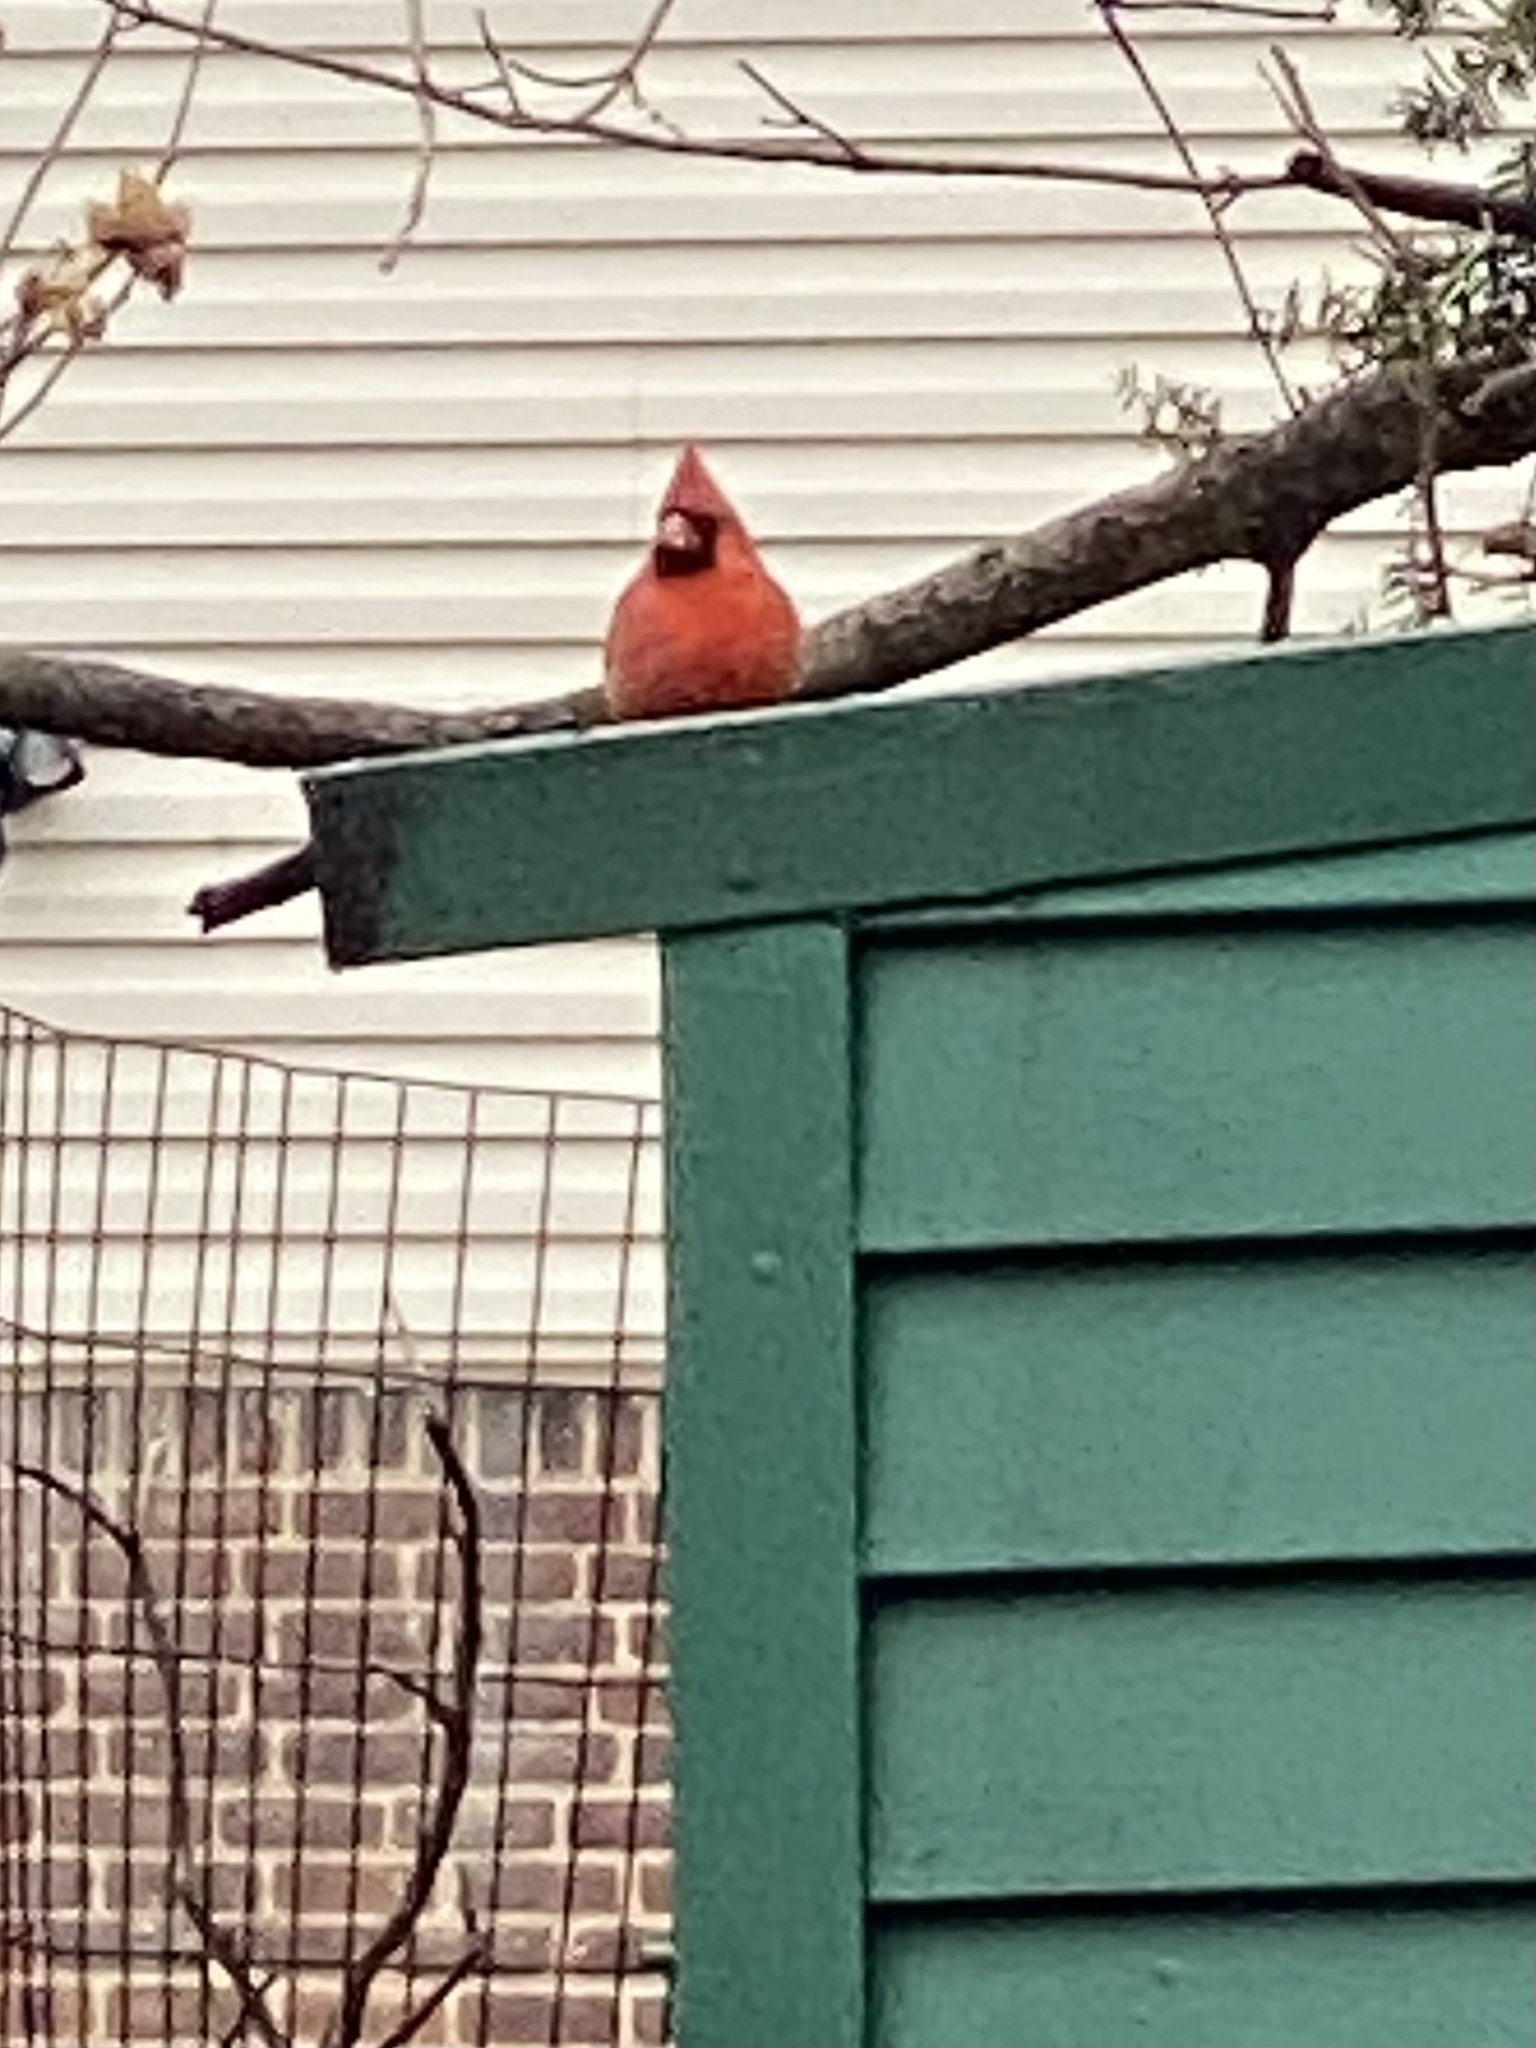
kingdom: Animalia
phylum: Chordata
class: Aves
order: Passeriformes
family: Cardinalidae
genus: Cardinalis
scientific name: Cardinalis cardinalis
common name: Northern cardinal
